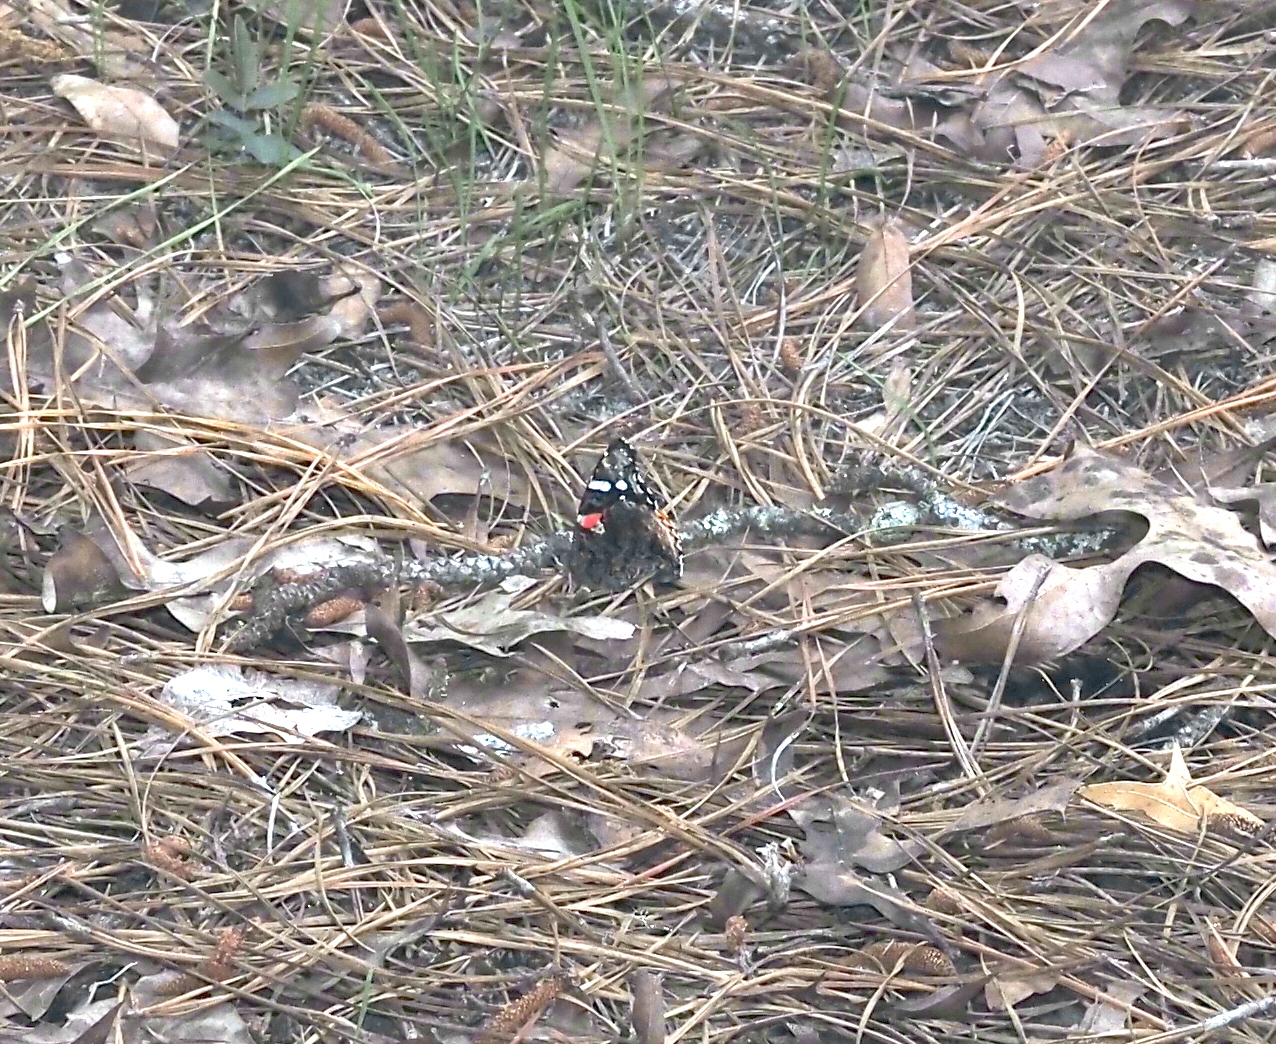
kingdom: Animalia
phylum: Arthropoda
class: Insecta
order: Lepidoptera
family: Nymphalidae
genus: Vanessa
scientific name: Vanessa atalanta
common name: Red admiral
